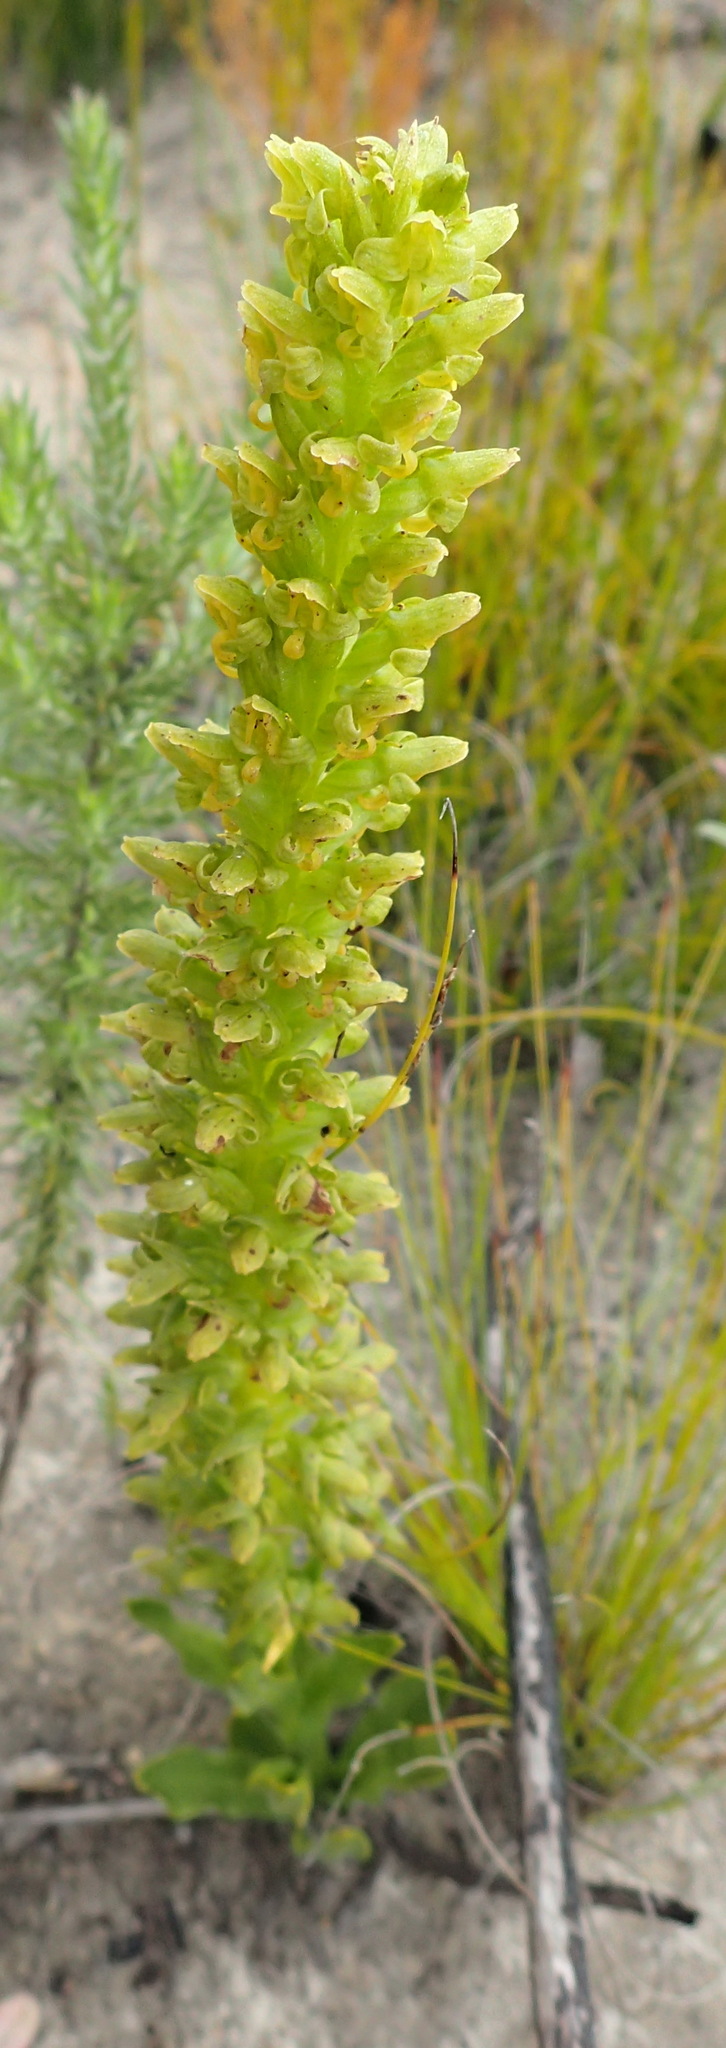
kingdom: Plantae
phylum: Tracheophyta
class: Liliopsida
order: Asparagales
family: Orchidaceae
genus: Disa
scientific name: Disa cylindrica
